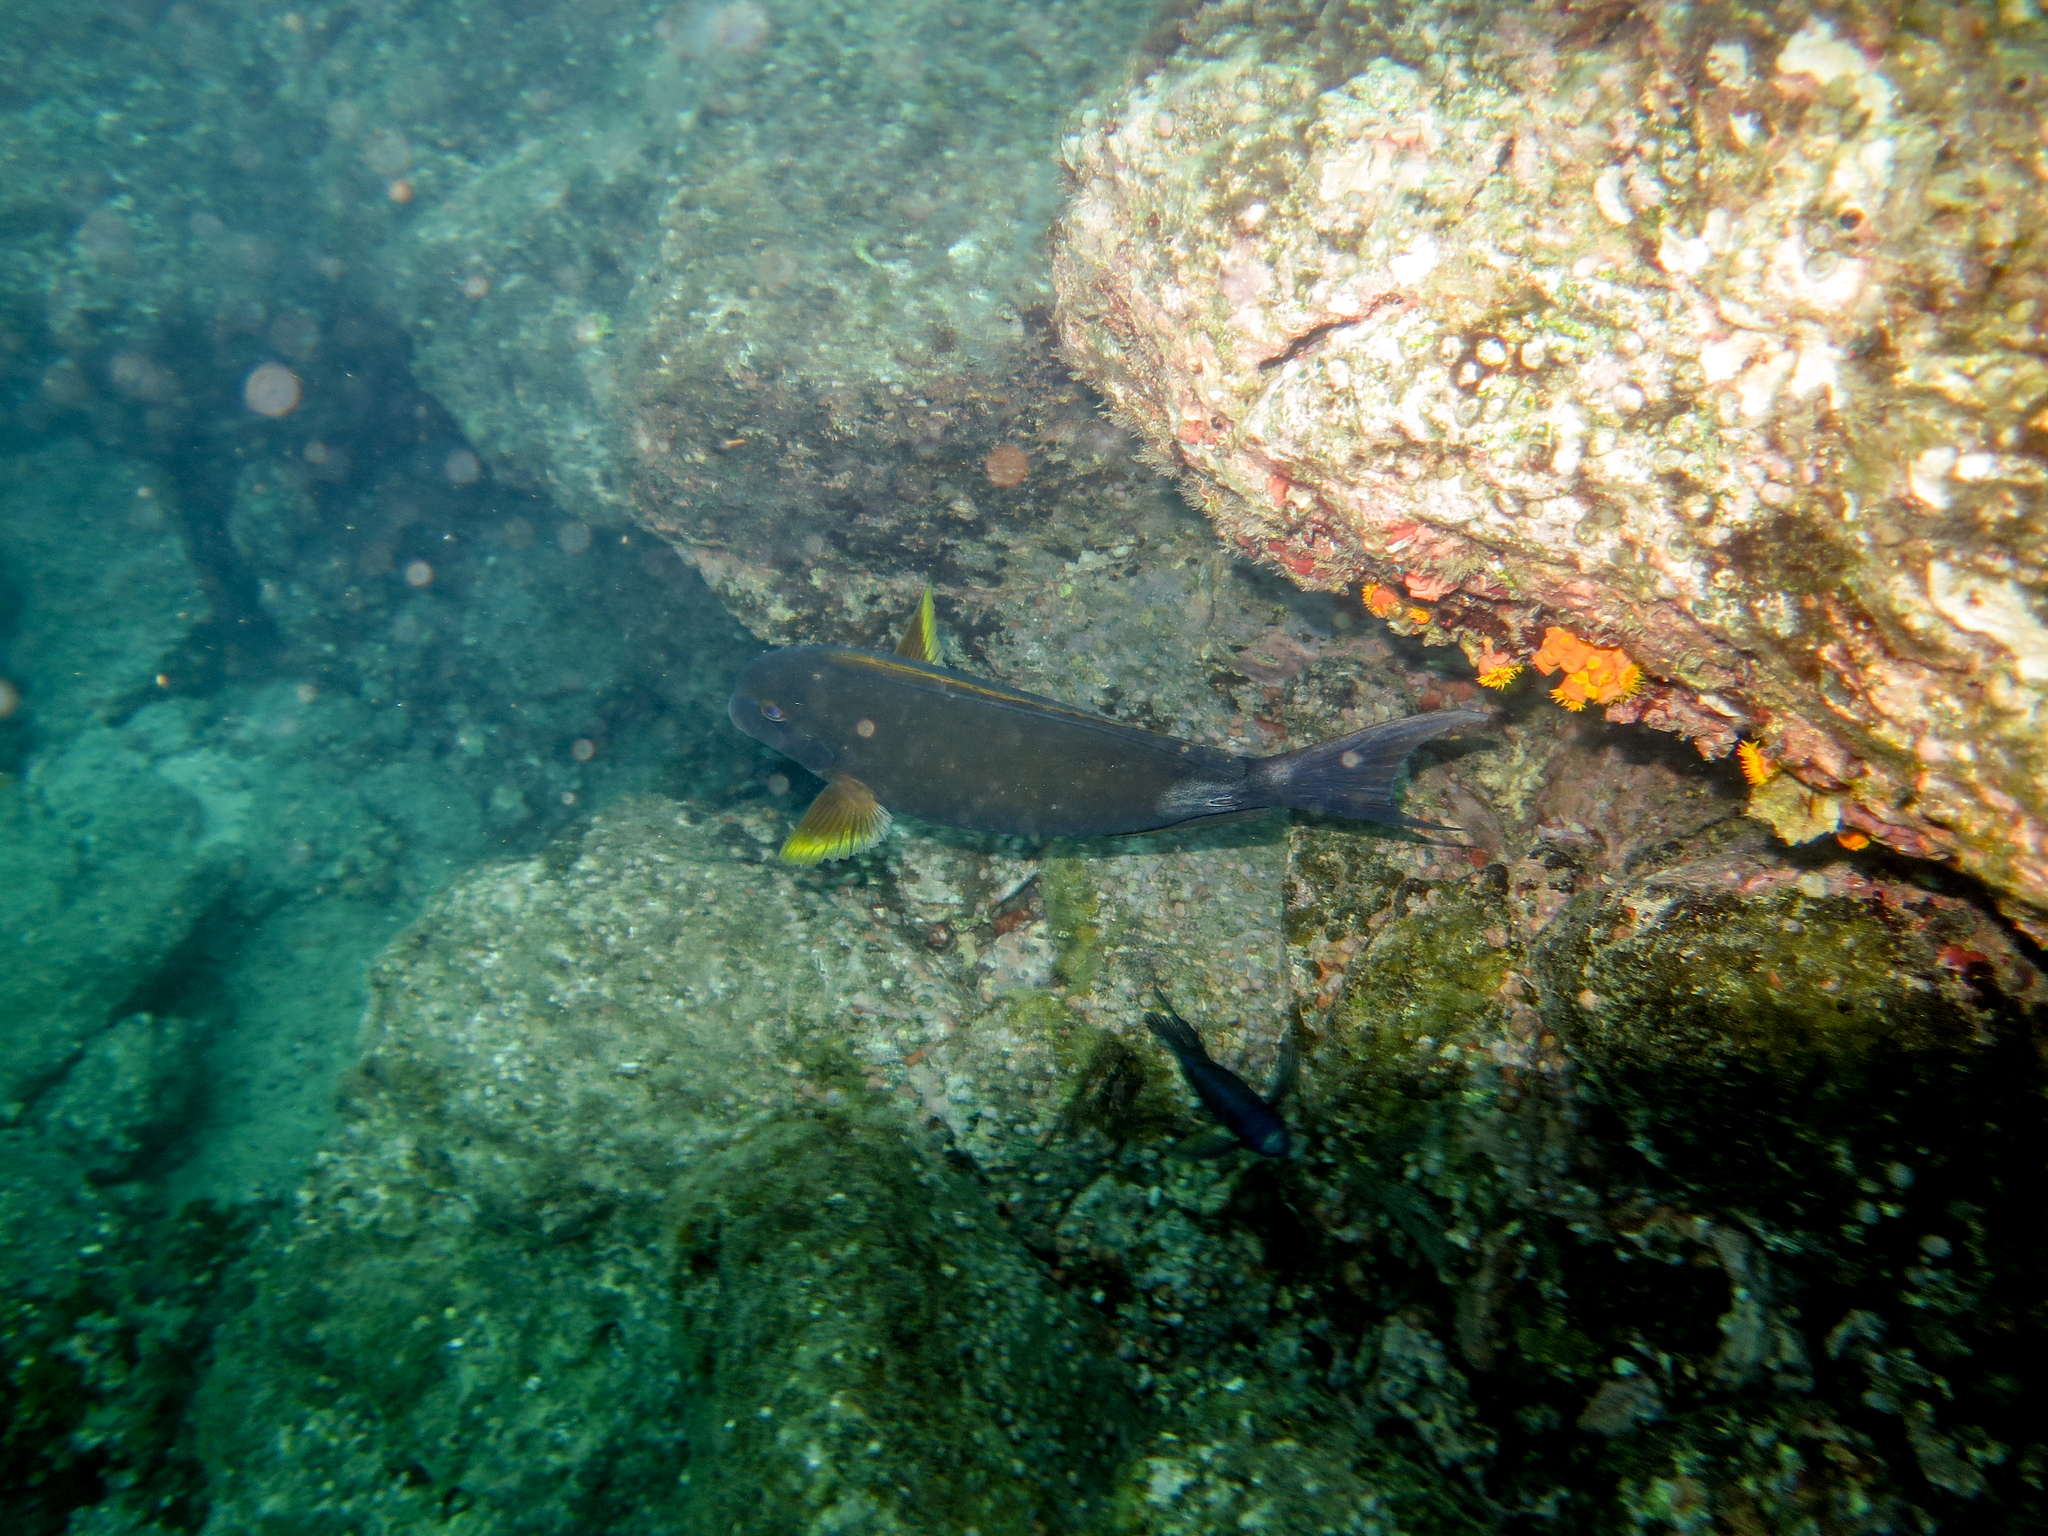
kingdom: Animalia
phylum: Chordata
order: Perciformes
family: Acanthuridae
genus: Acanthurus
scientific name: Acanthurus xanthopterus
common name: Cuvier's surgeonfish
